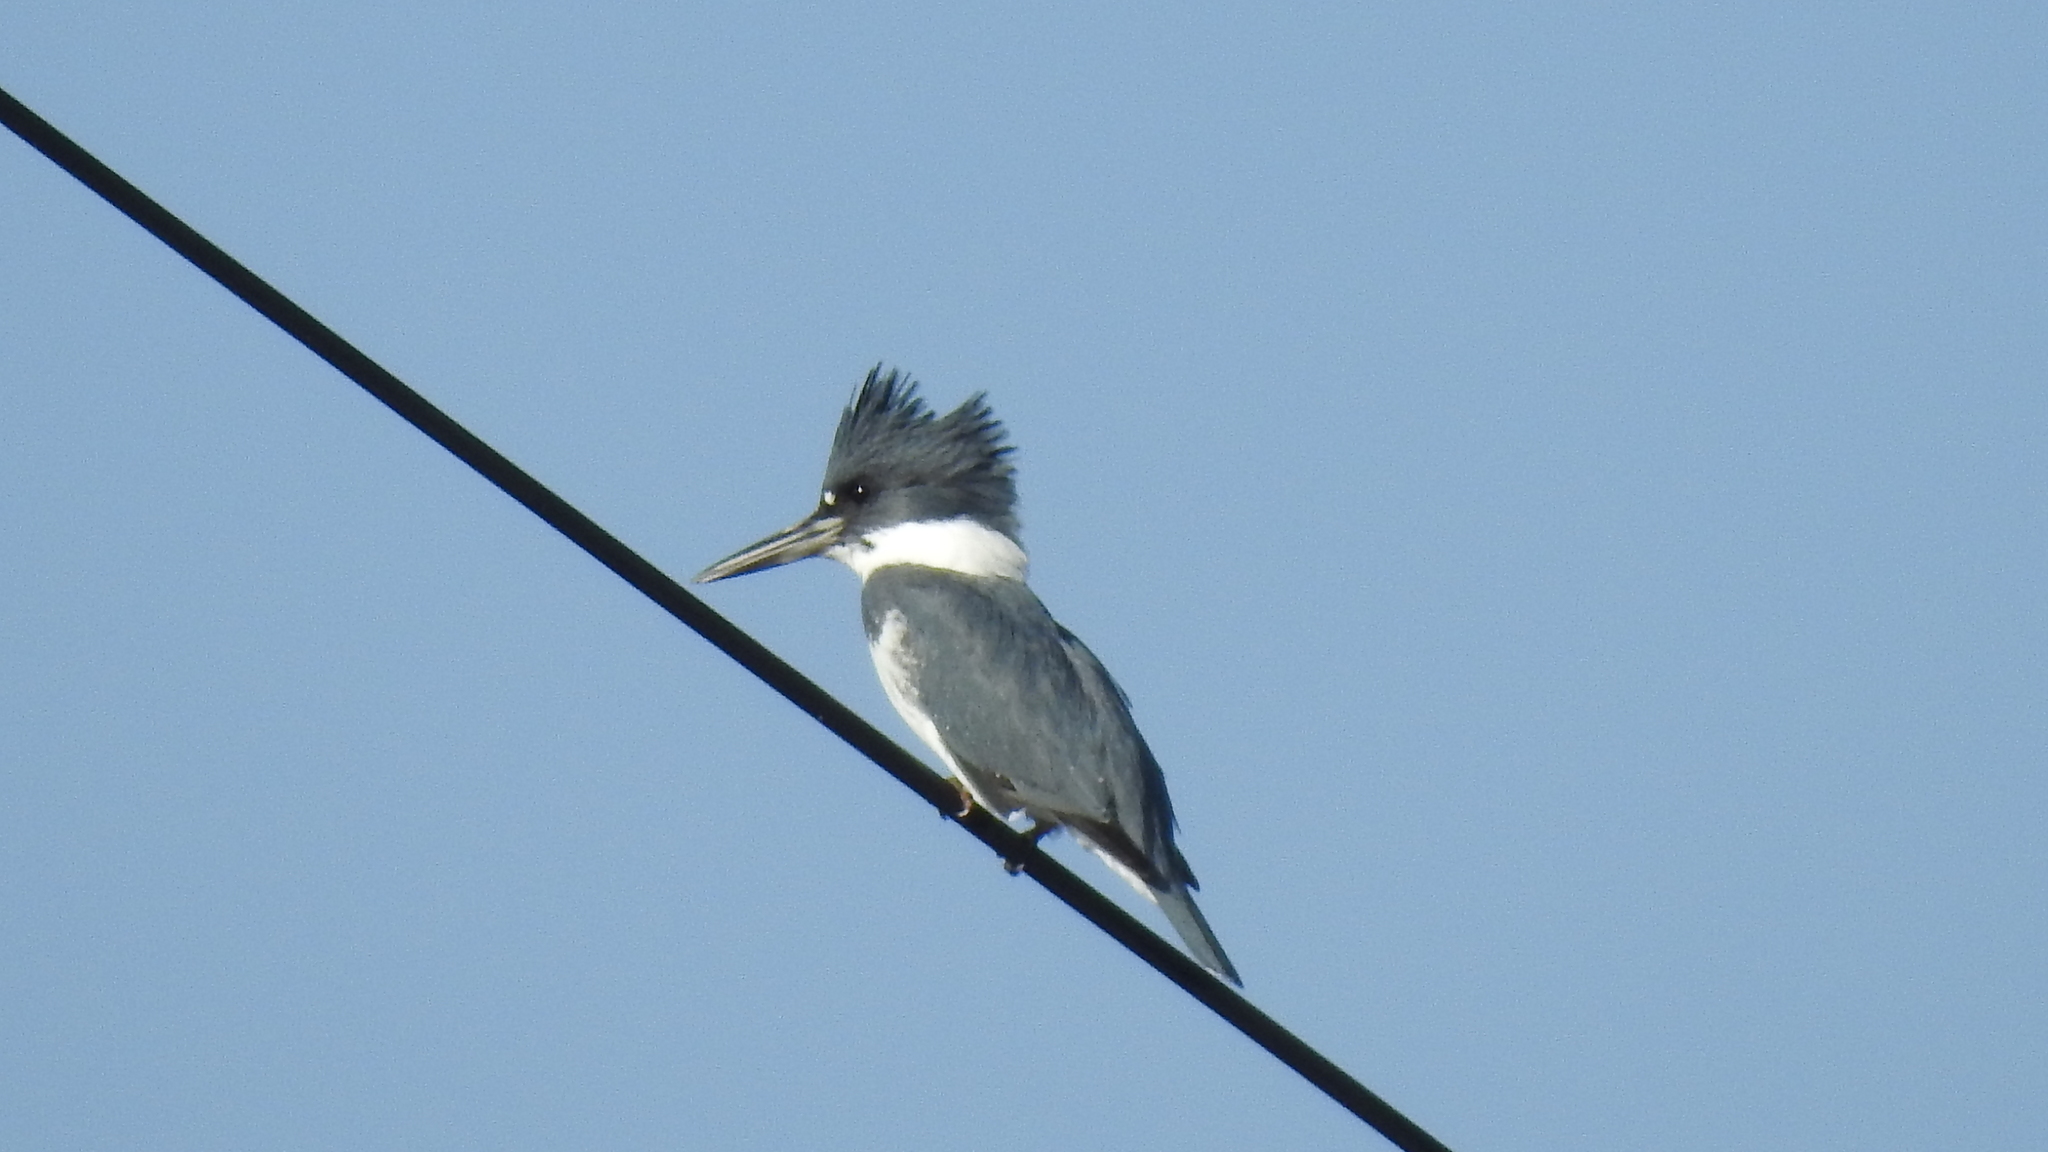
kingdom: Animalia
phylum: Chordata
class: Aves
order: Coraciiformes
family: Alcedinidae
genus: Megaceryle
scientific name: Megaceryle alcyon
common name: Belted kingfisher
